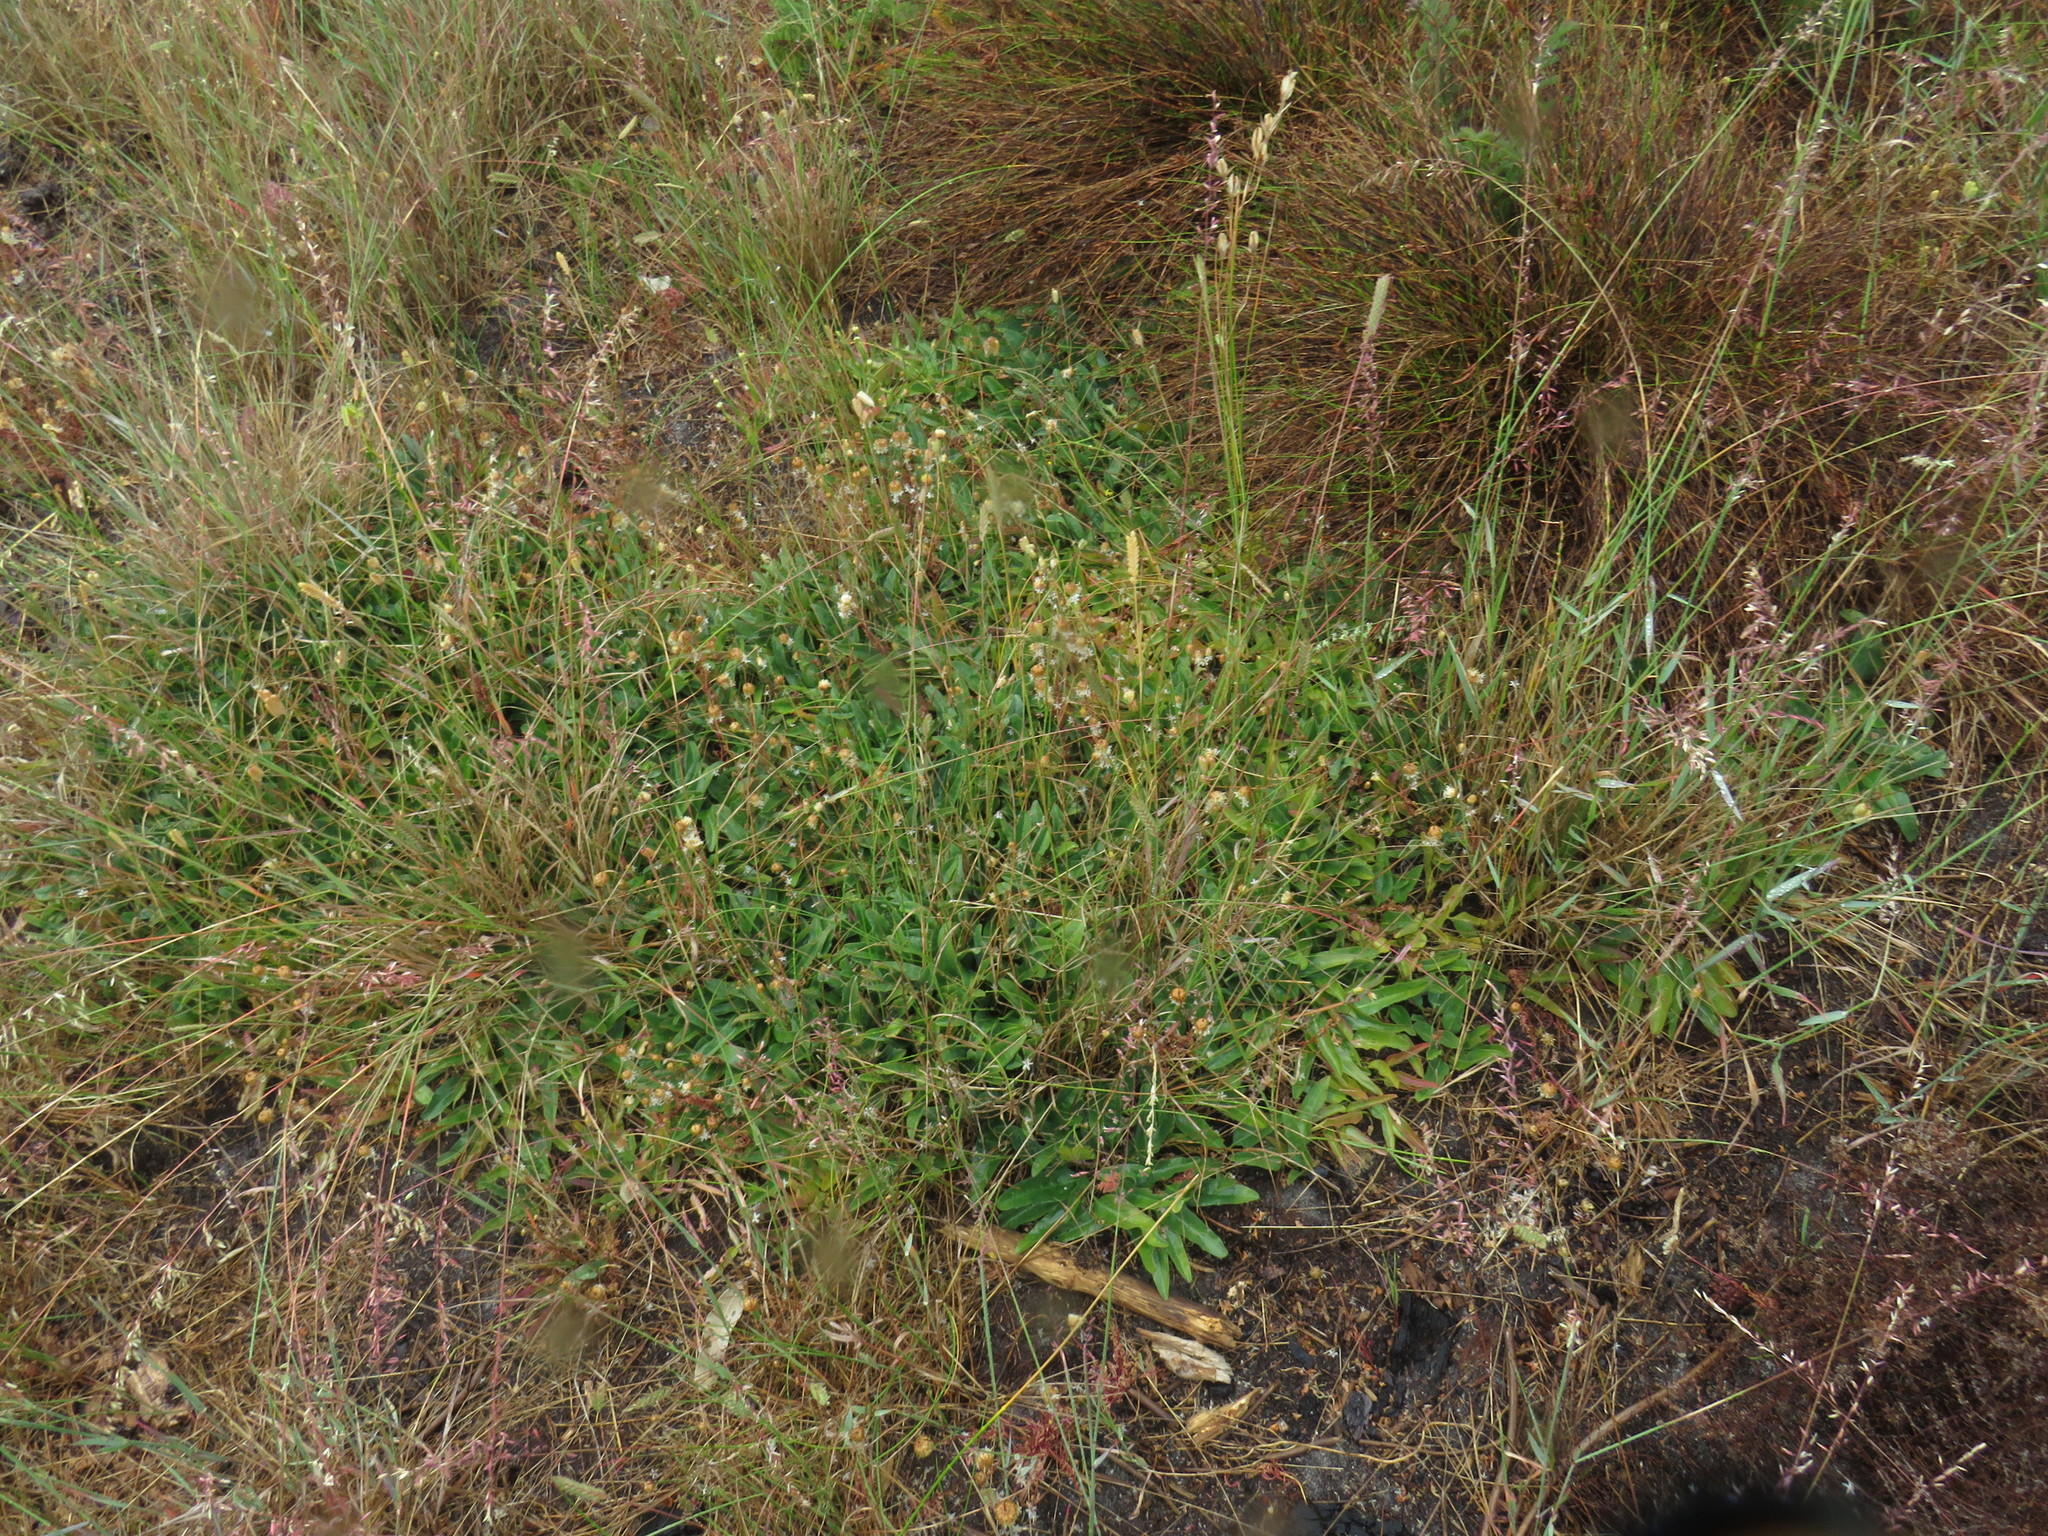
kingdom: Plantae
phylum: Tracheophyta
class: Magnoliopsida
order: Malpighiales
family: Euphorbiaceae
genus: Euphorbia
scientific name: Euphorbia tuberosa
